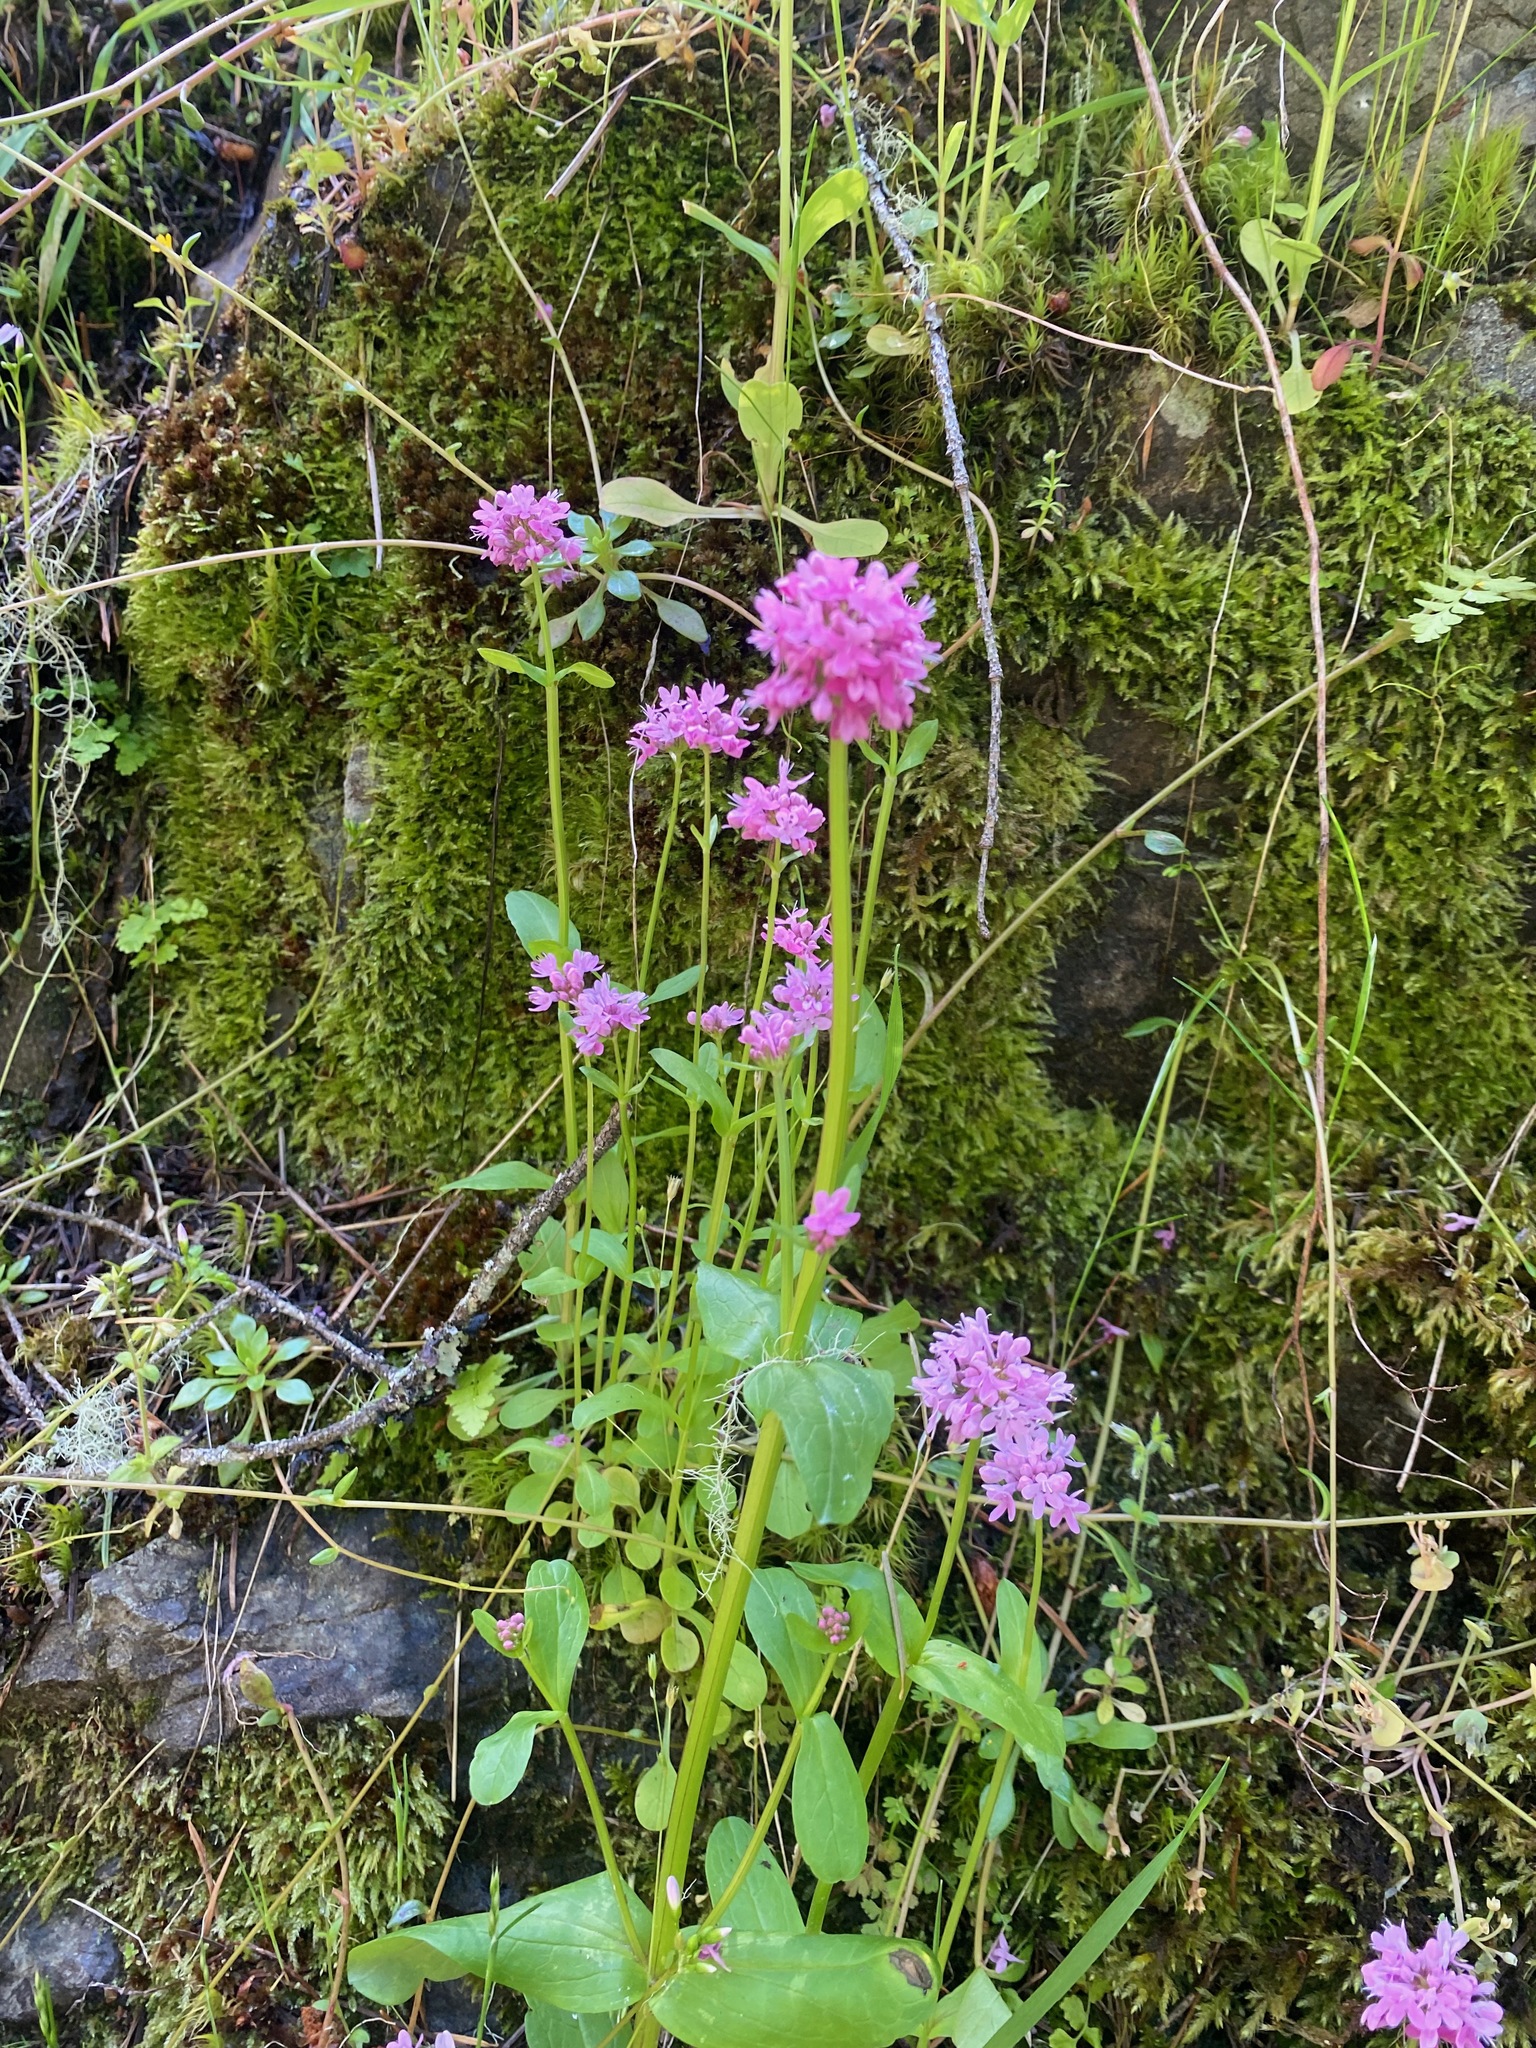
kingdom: Plantae
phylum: Tracheophyta
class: Magnoliopsida
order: Dipsacales
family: Caprifoliaceae
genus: Plectritis
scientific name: Plectritis congesta
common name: Pink plectritis
